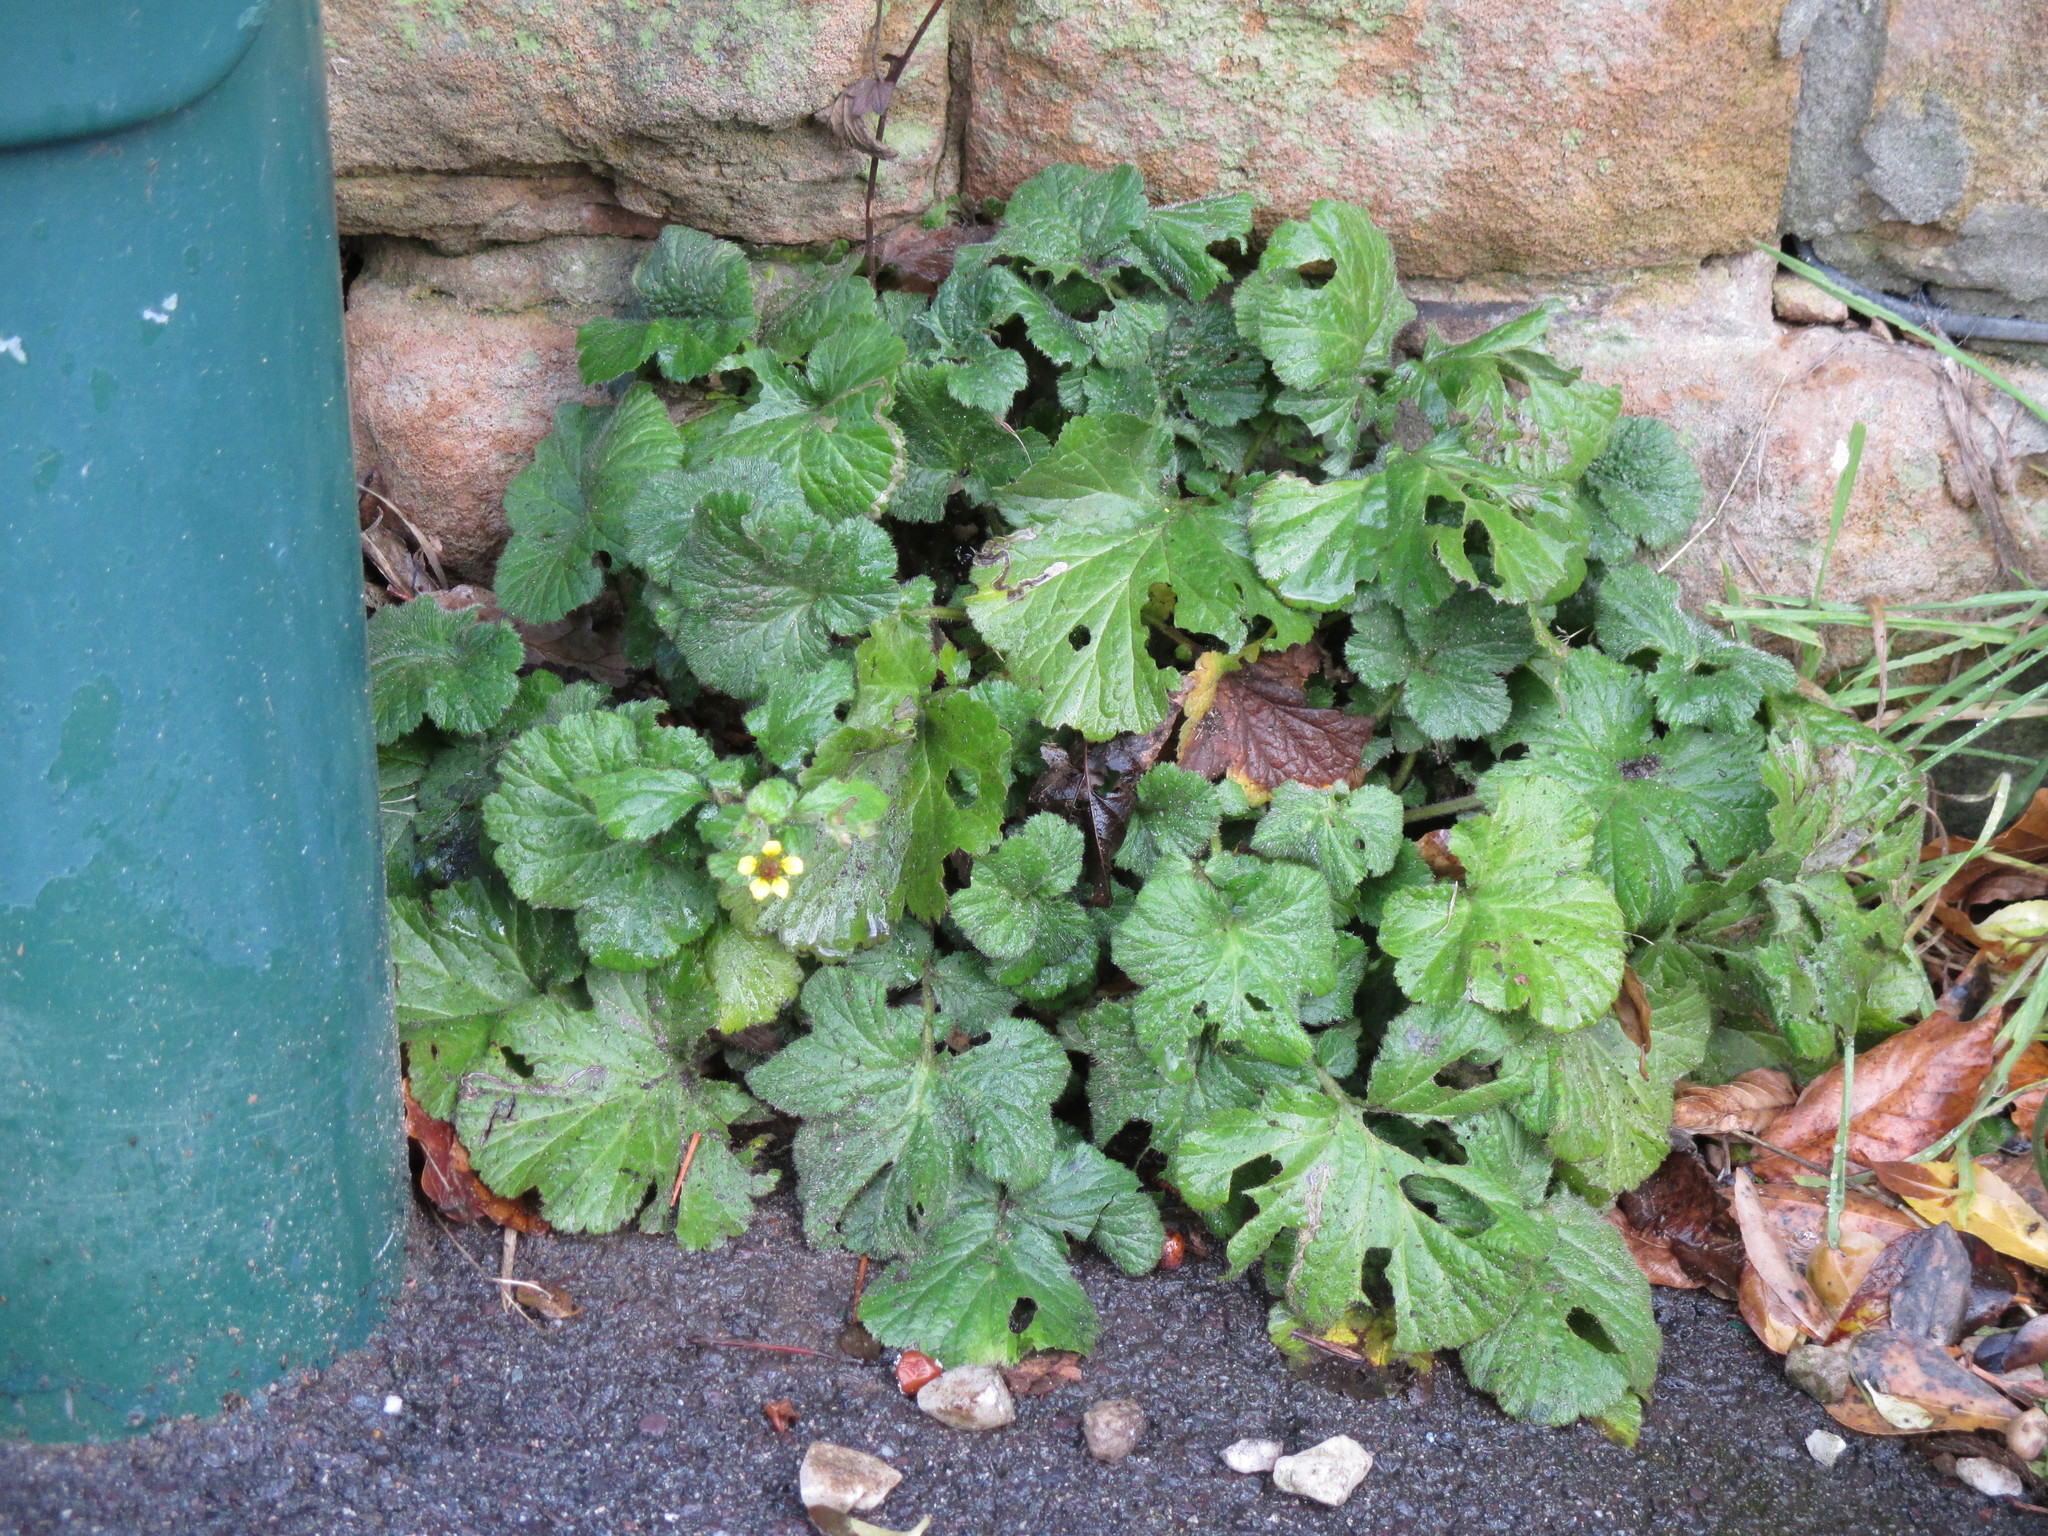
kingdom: Plantae
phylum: Tracheophyta
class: Magnoliopsida
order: Rosales
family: Rosaceae
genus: Geum
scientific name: Geum urbanum
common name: Wood avens
